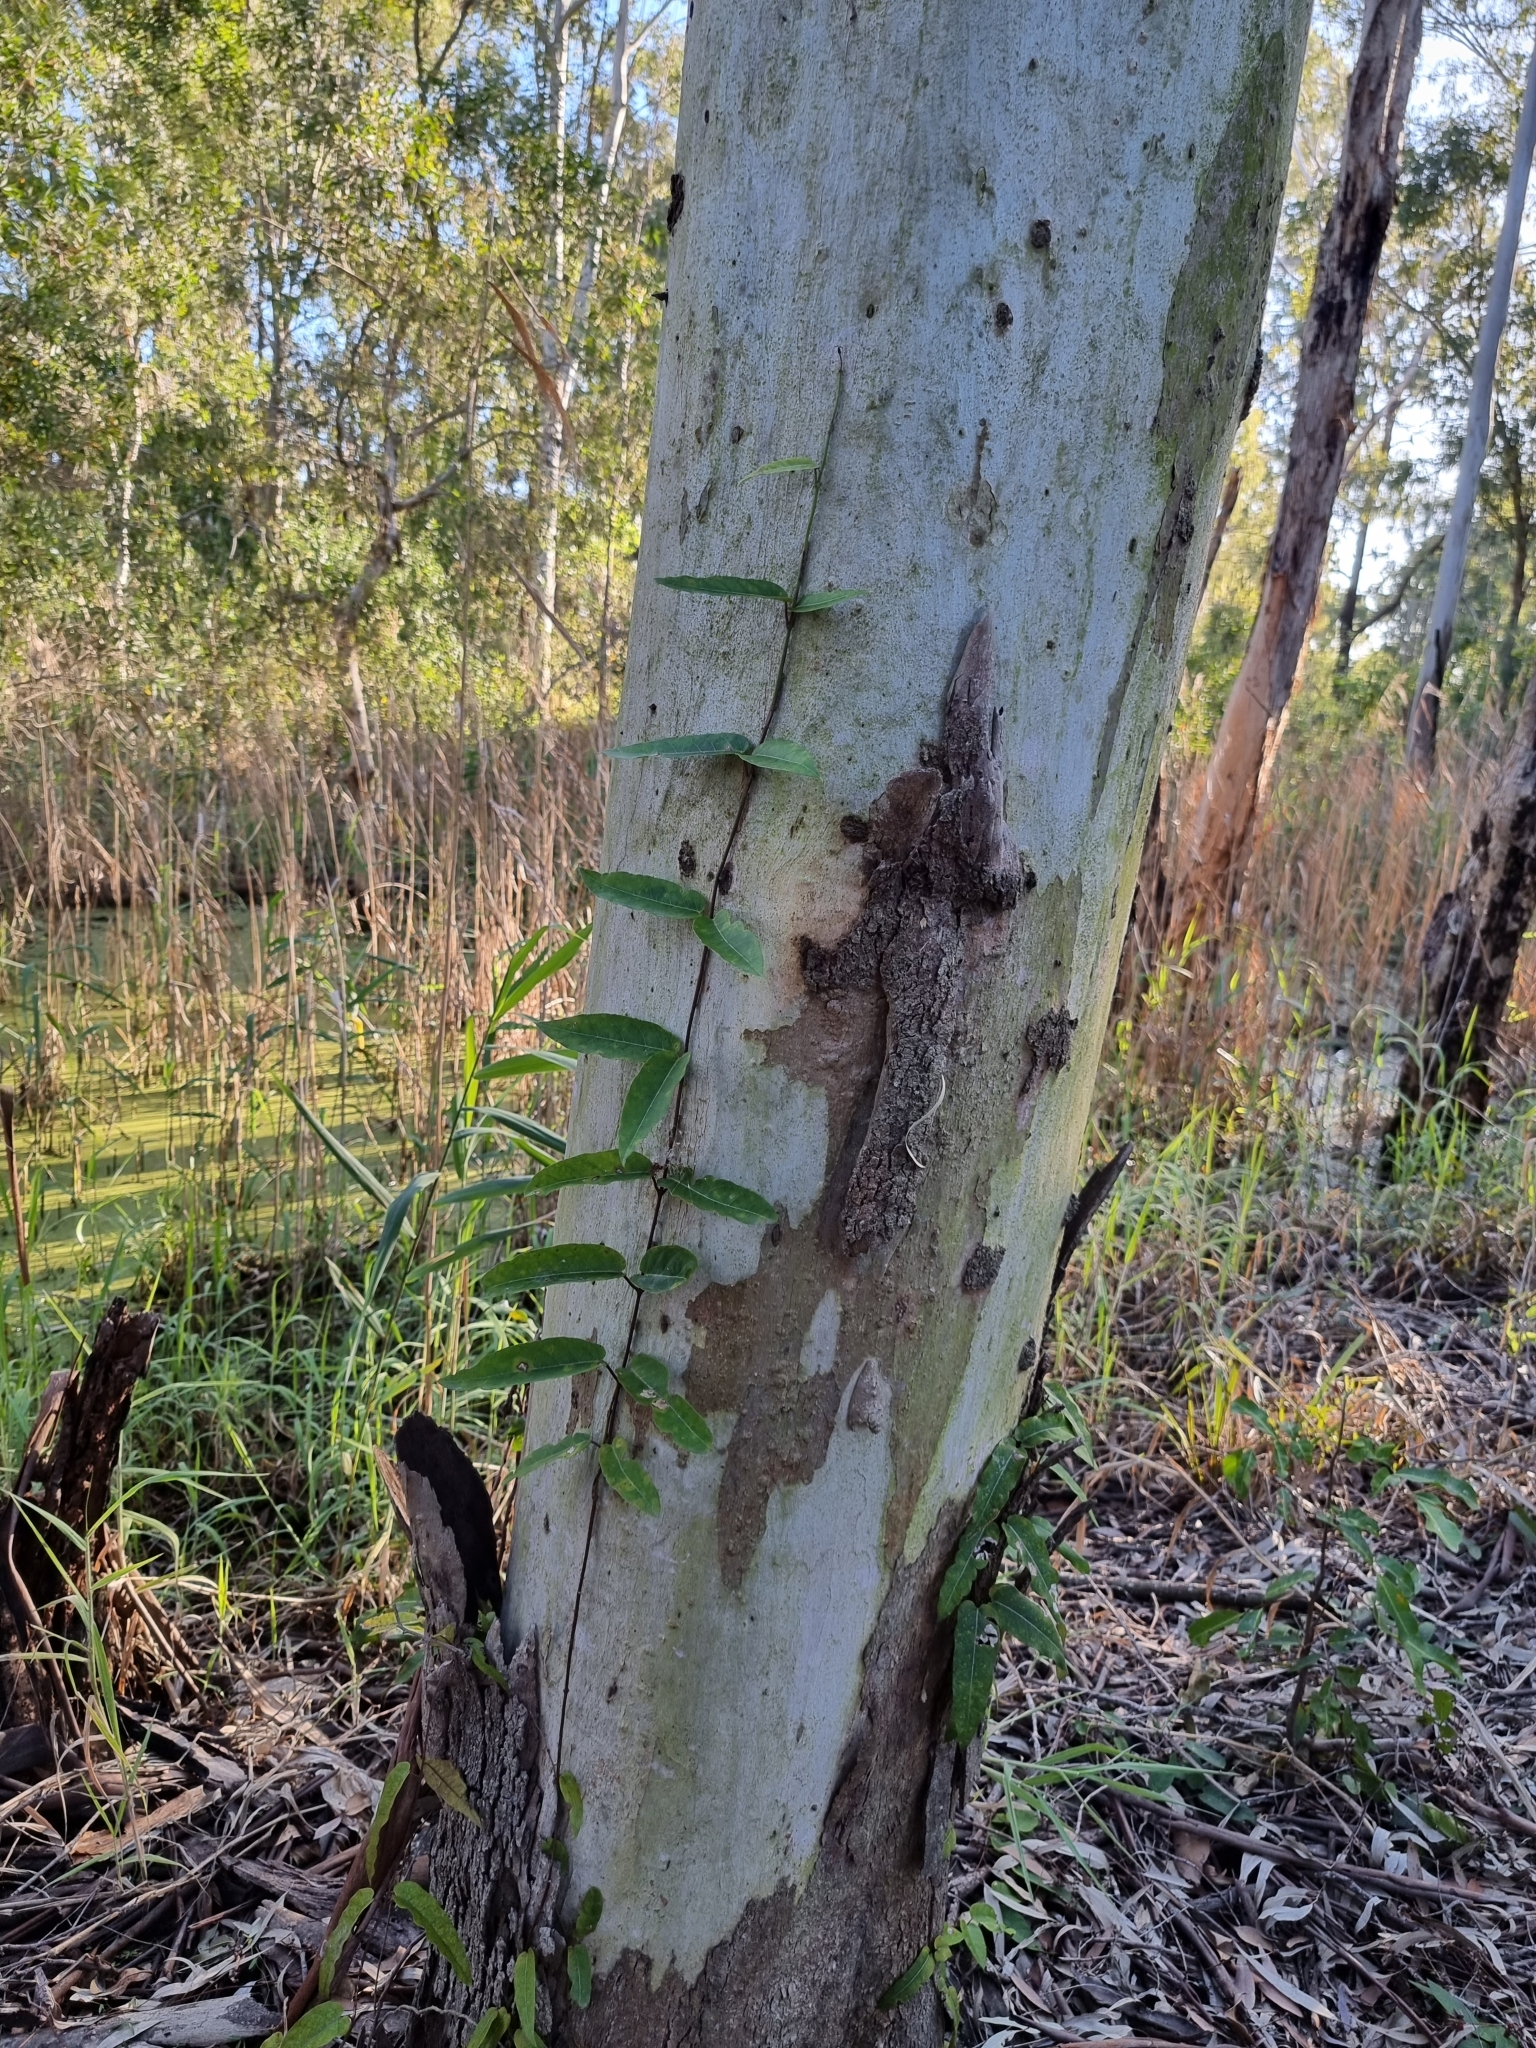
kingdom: Plantae
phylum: Tracheophyta
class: Magnoliopsida
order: Gentianales
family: Apocynaceae
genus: Parsonsia
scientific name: Parsonsia straminea
